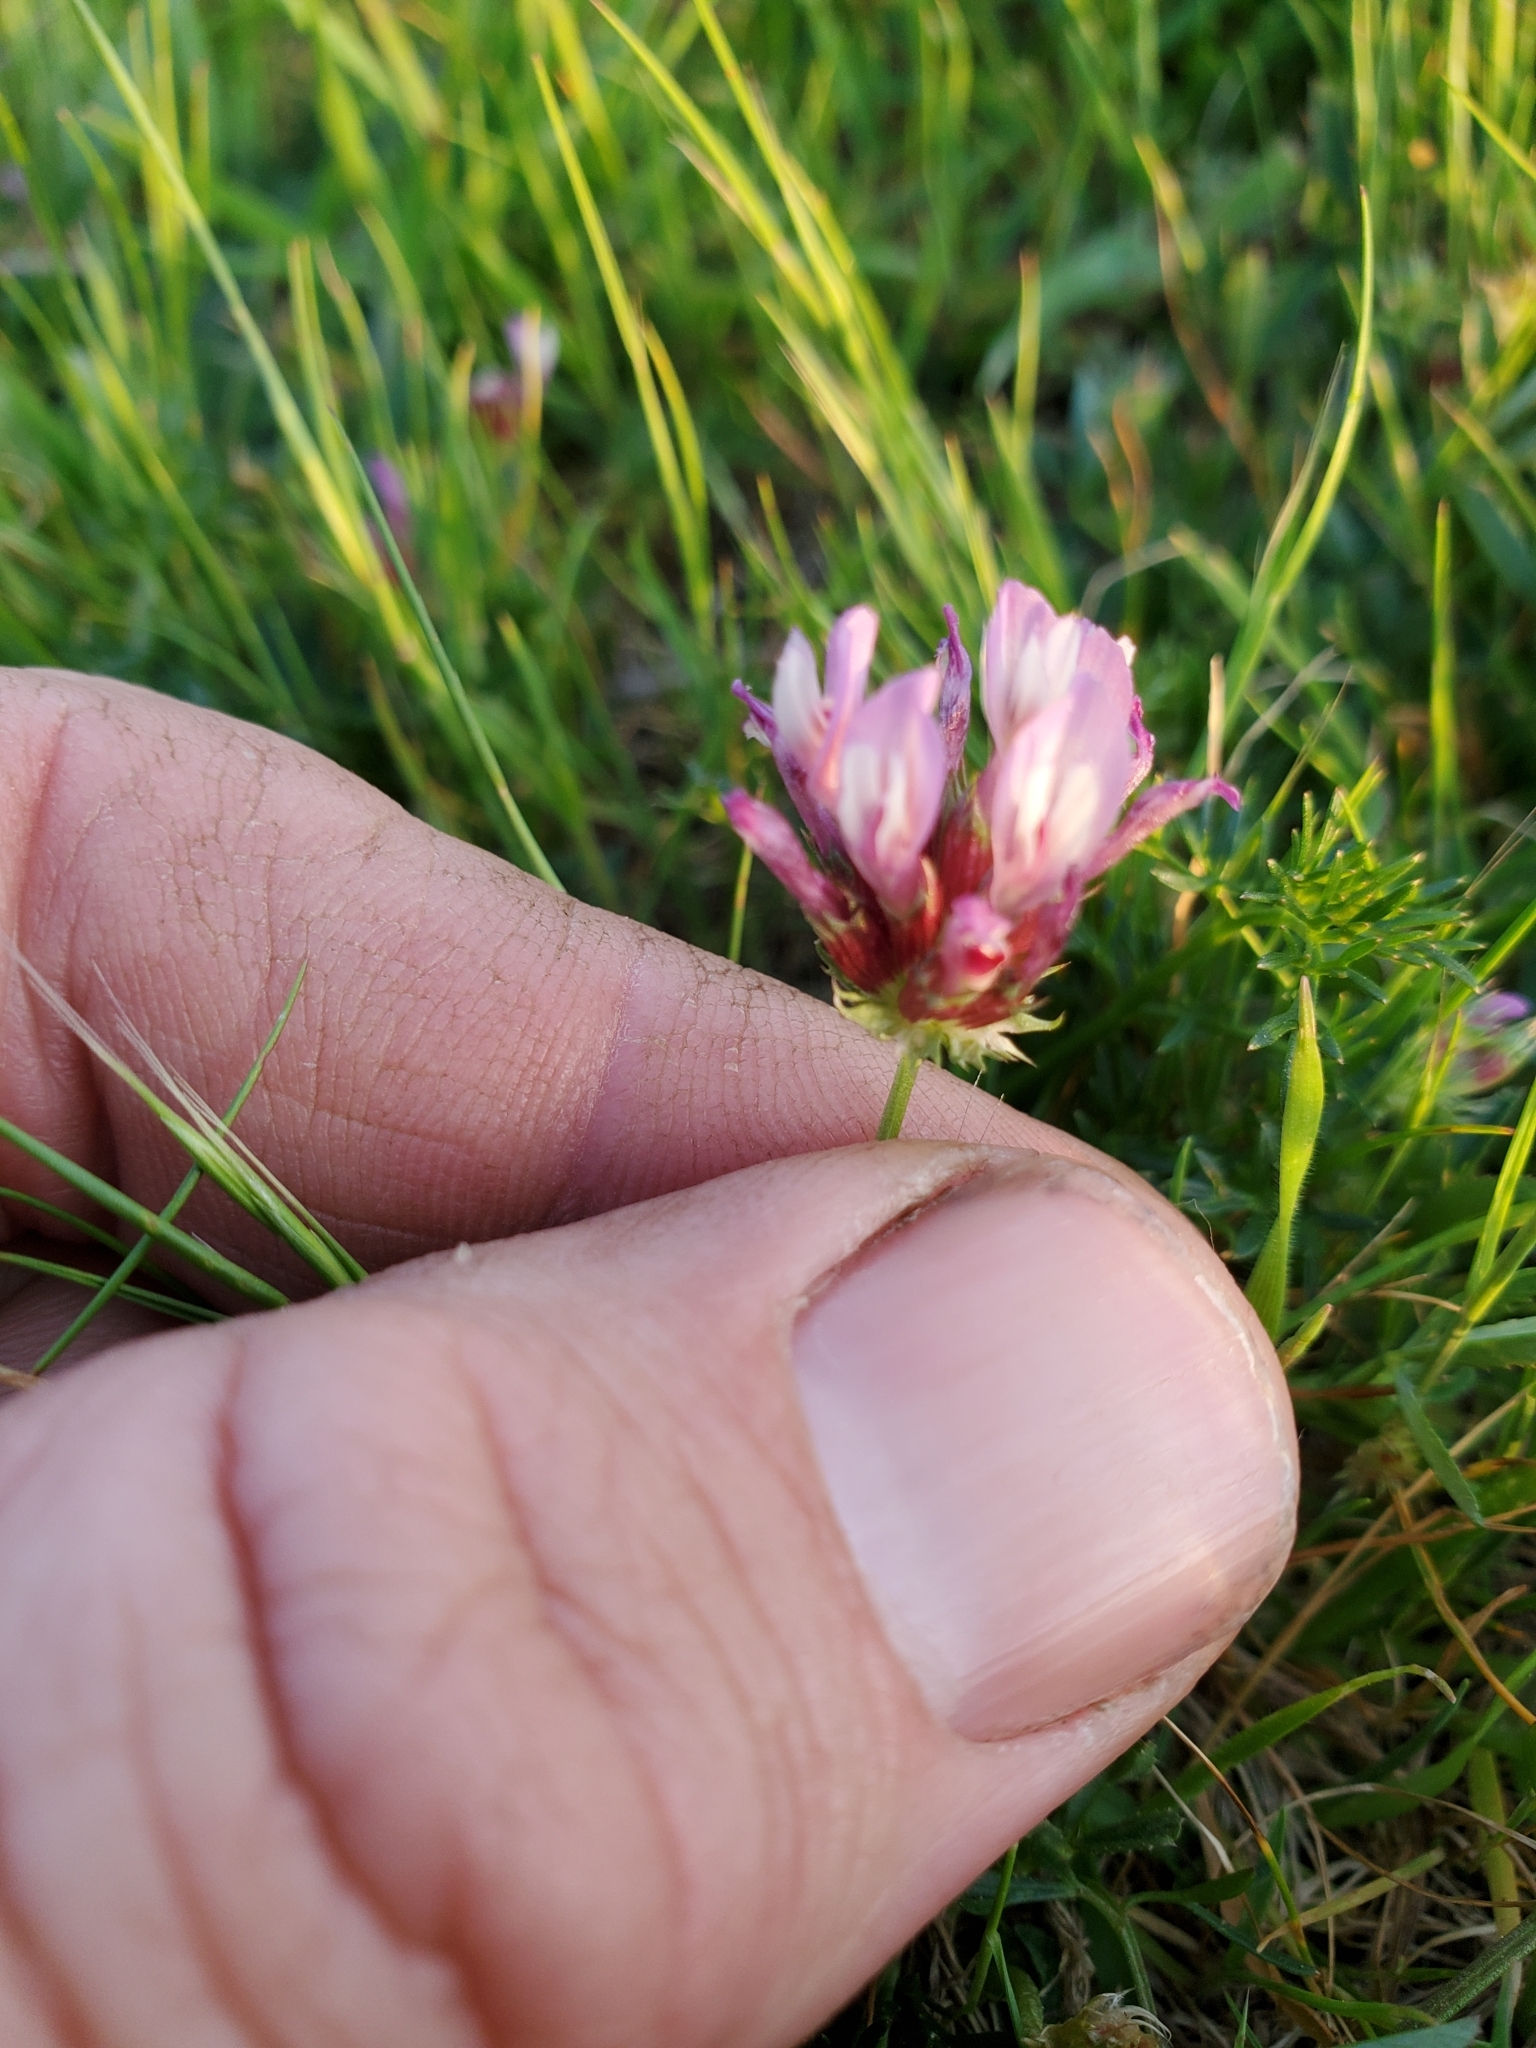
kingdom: Plantae
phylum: Tracheophyta
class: Magnoliopsida
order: Fabales
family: Fabaceae
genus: Trifolium
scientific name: Trifolium willdenovii
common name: Tomcat clover
